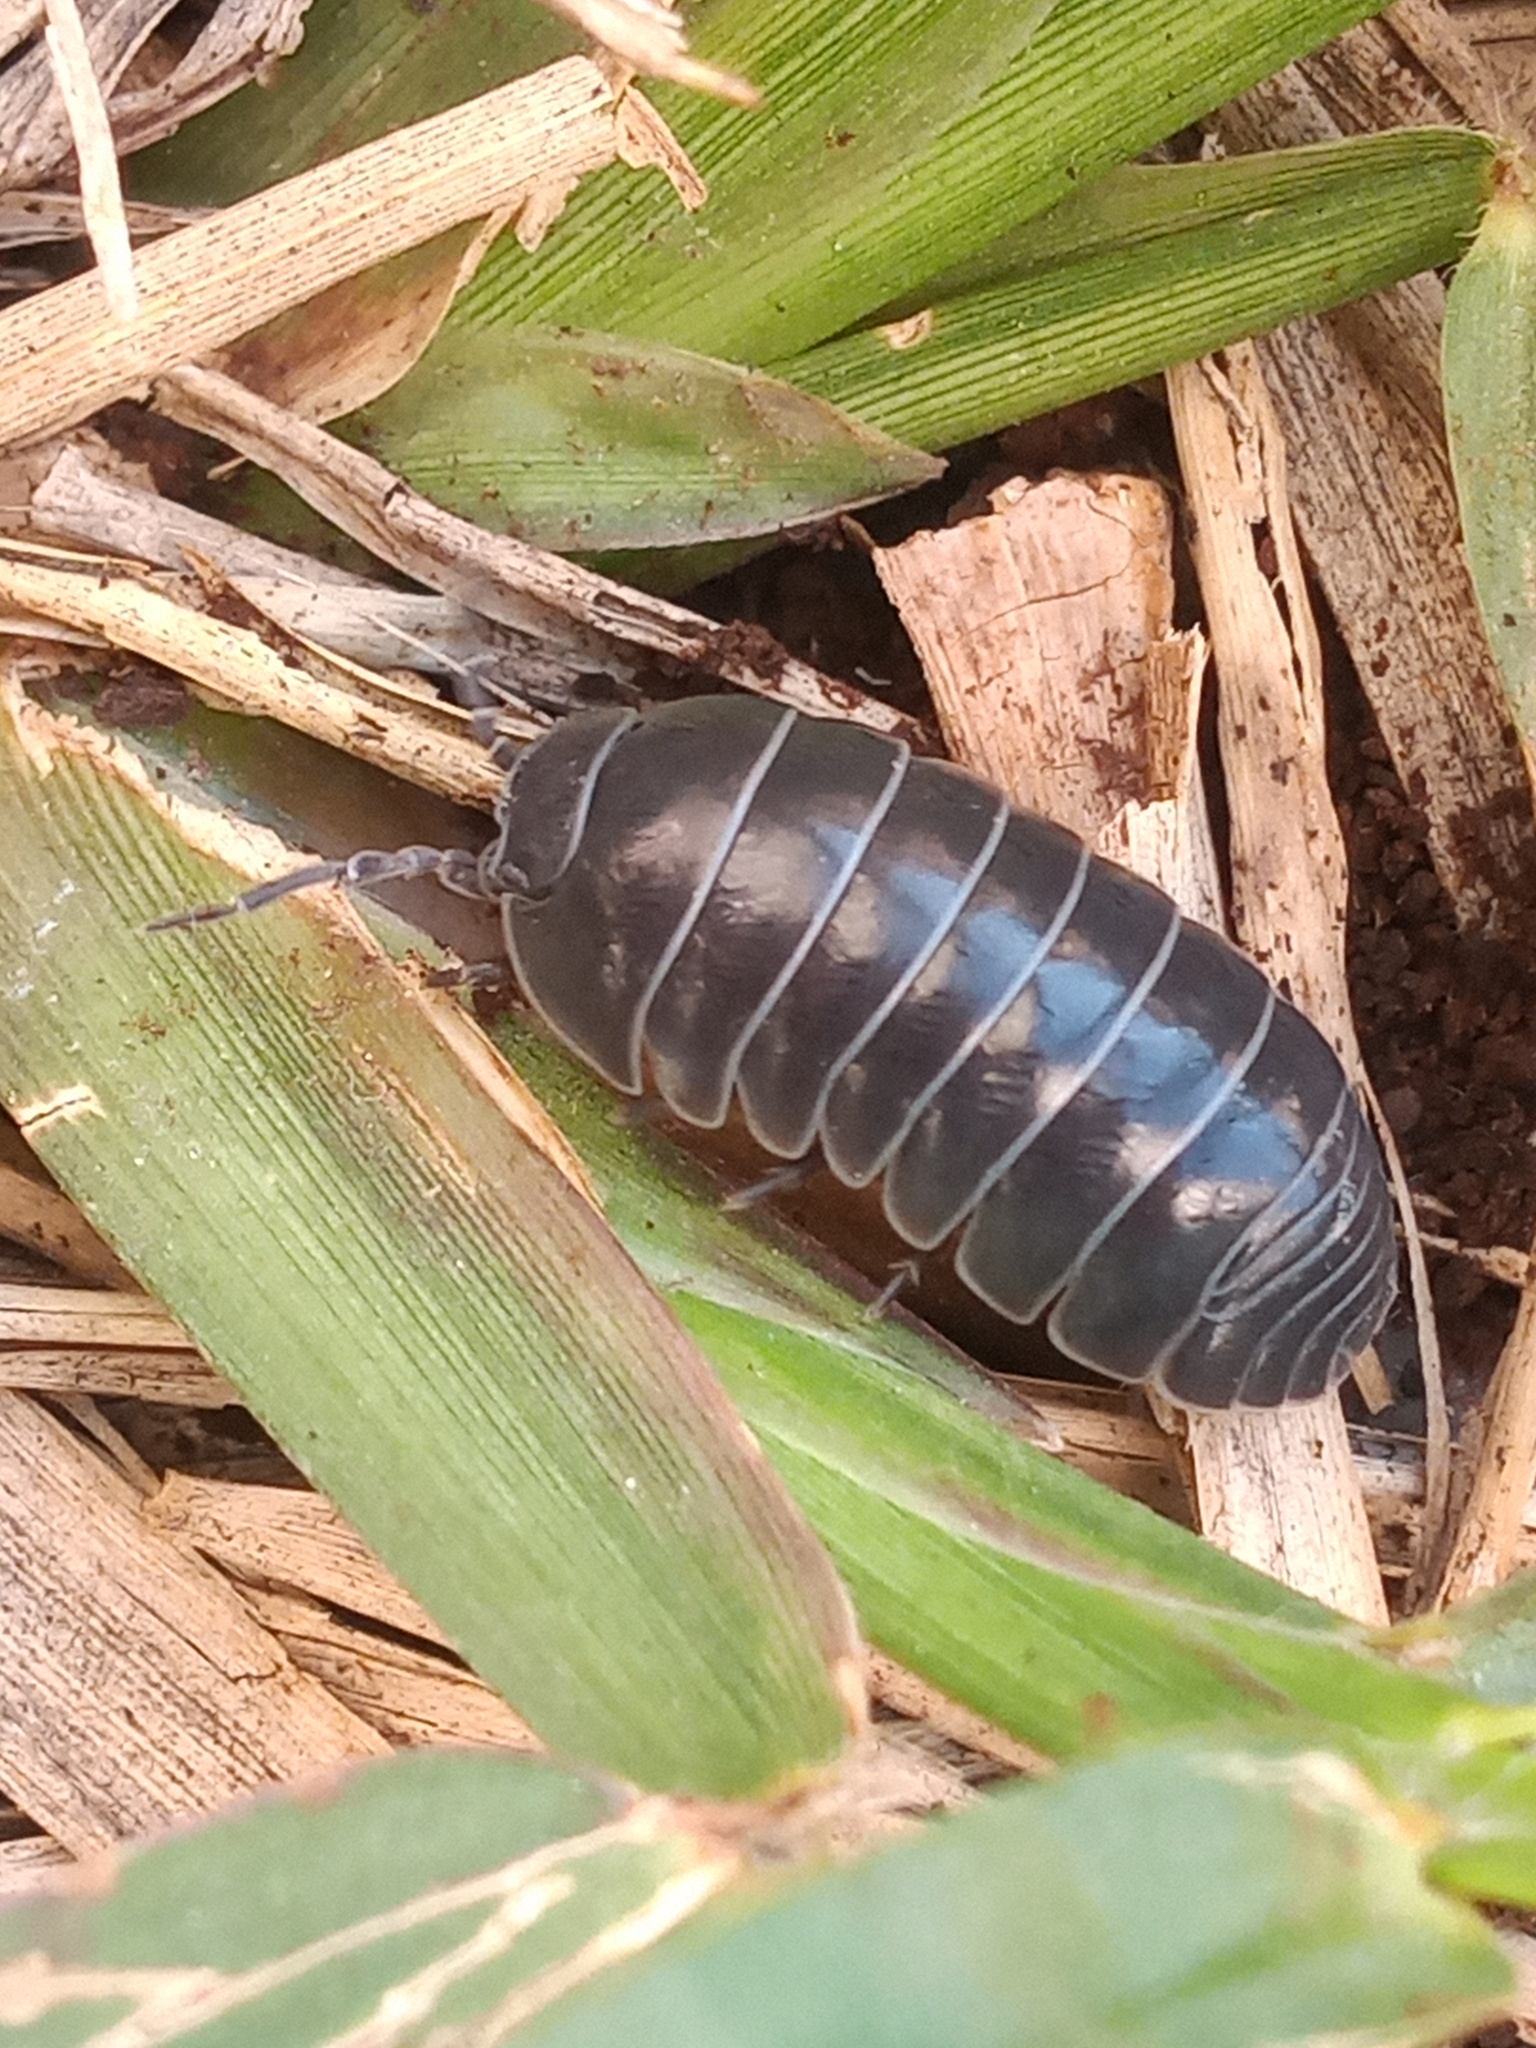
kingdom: Animalia
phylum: Arthropoda
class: Malacostraca
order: Isopoda
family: Armadillidiidae
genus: Armadillidium
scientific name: Armadillidium vulgare
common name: Common pill woodlouse
